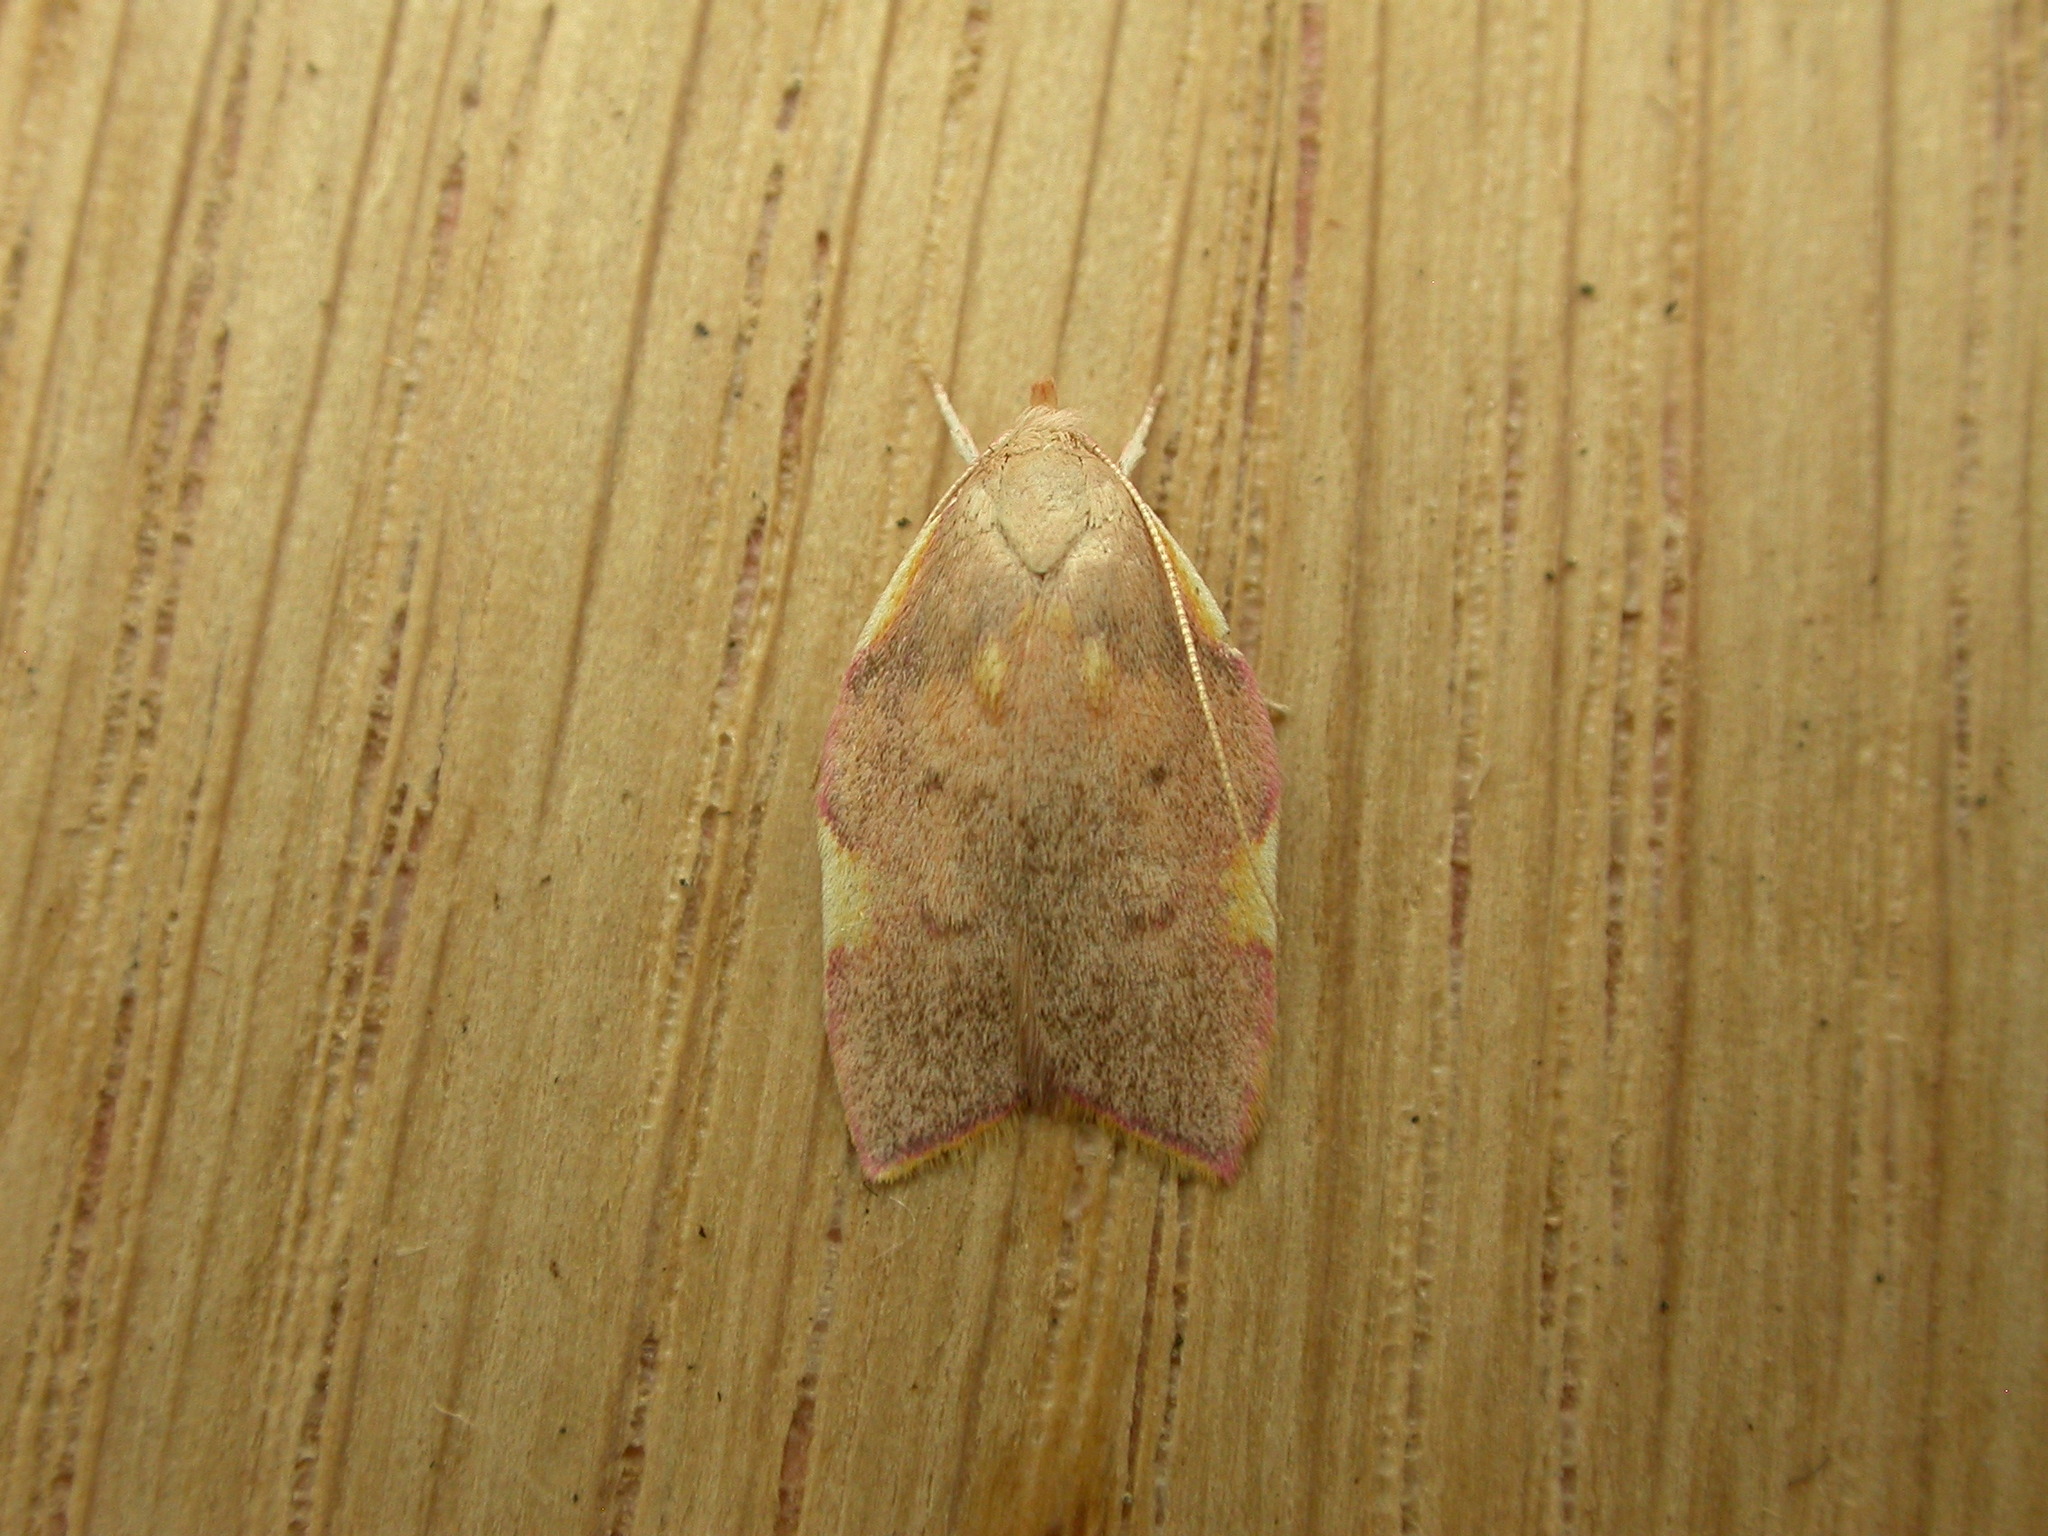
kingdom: Animalia
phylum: Arthropoda
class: Insecta
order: Lepidoptera
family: Peleopodidae
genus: Carcina
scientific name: Carcina quercana
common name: Moth
